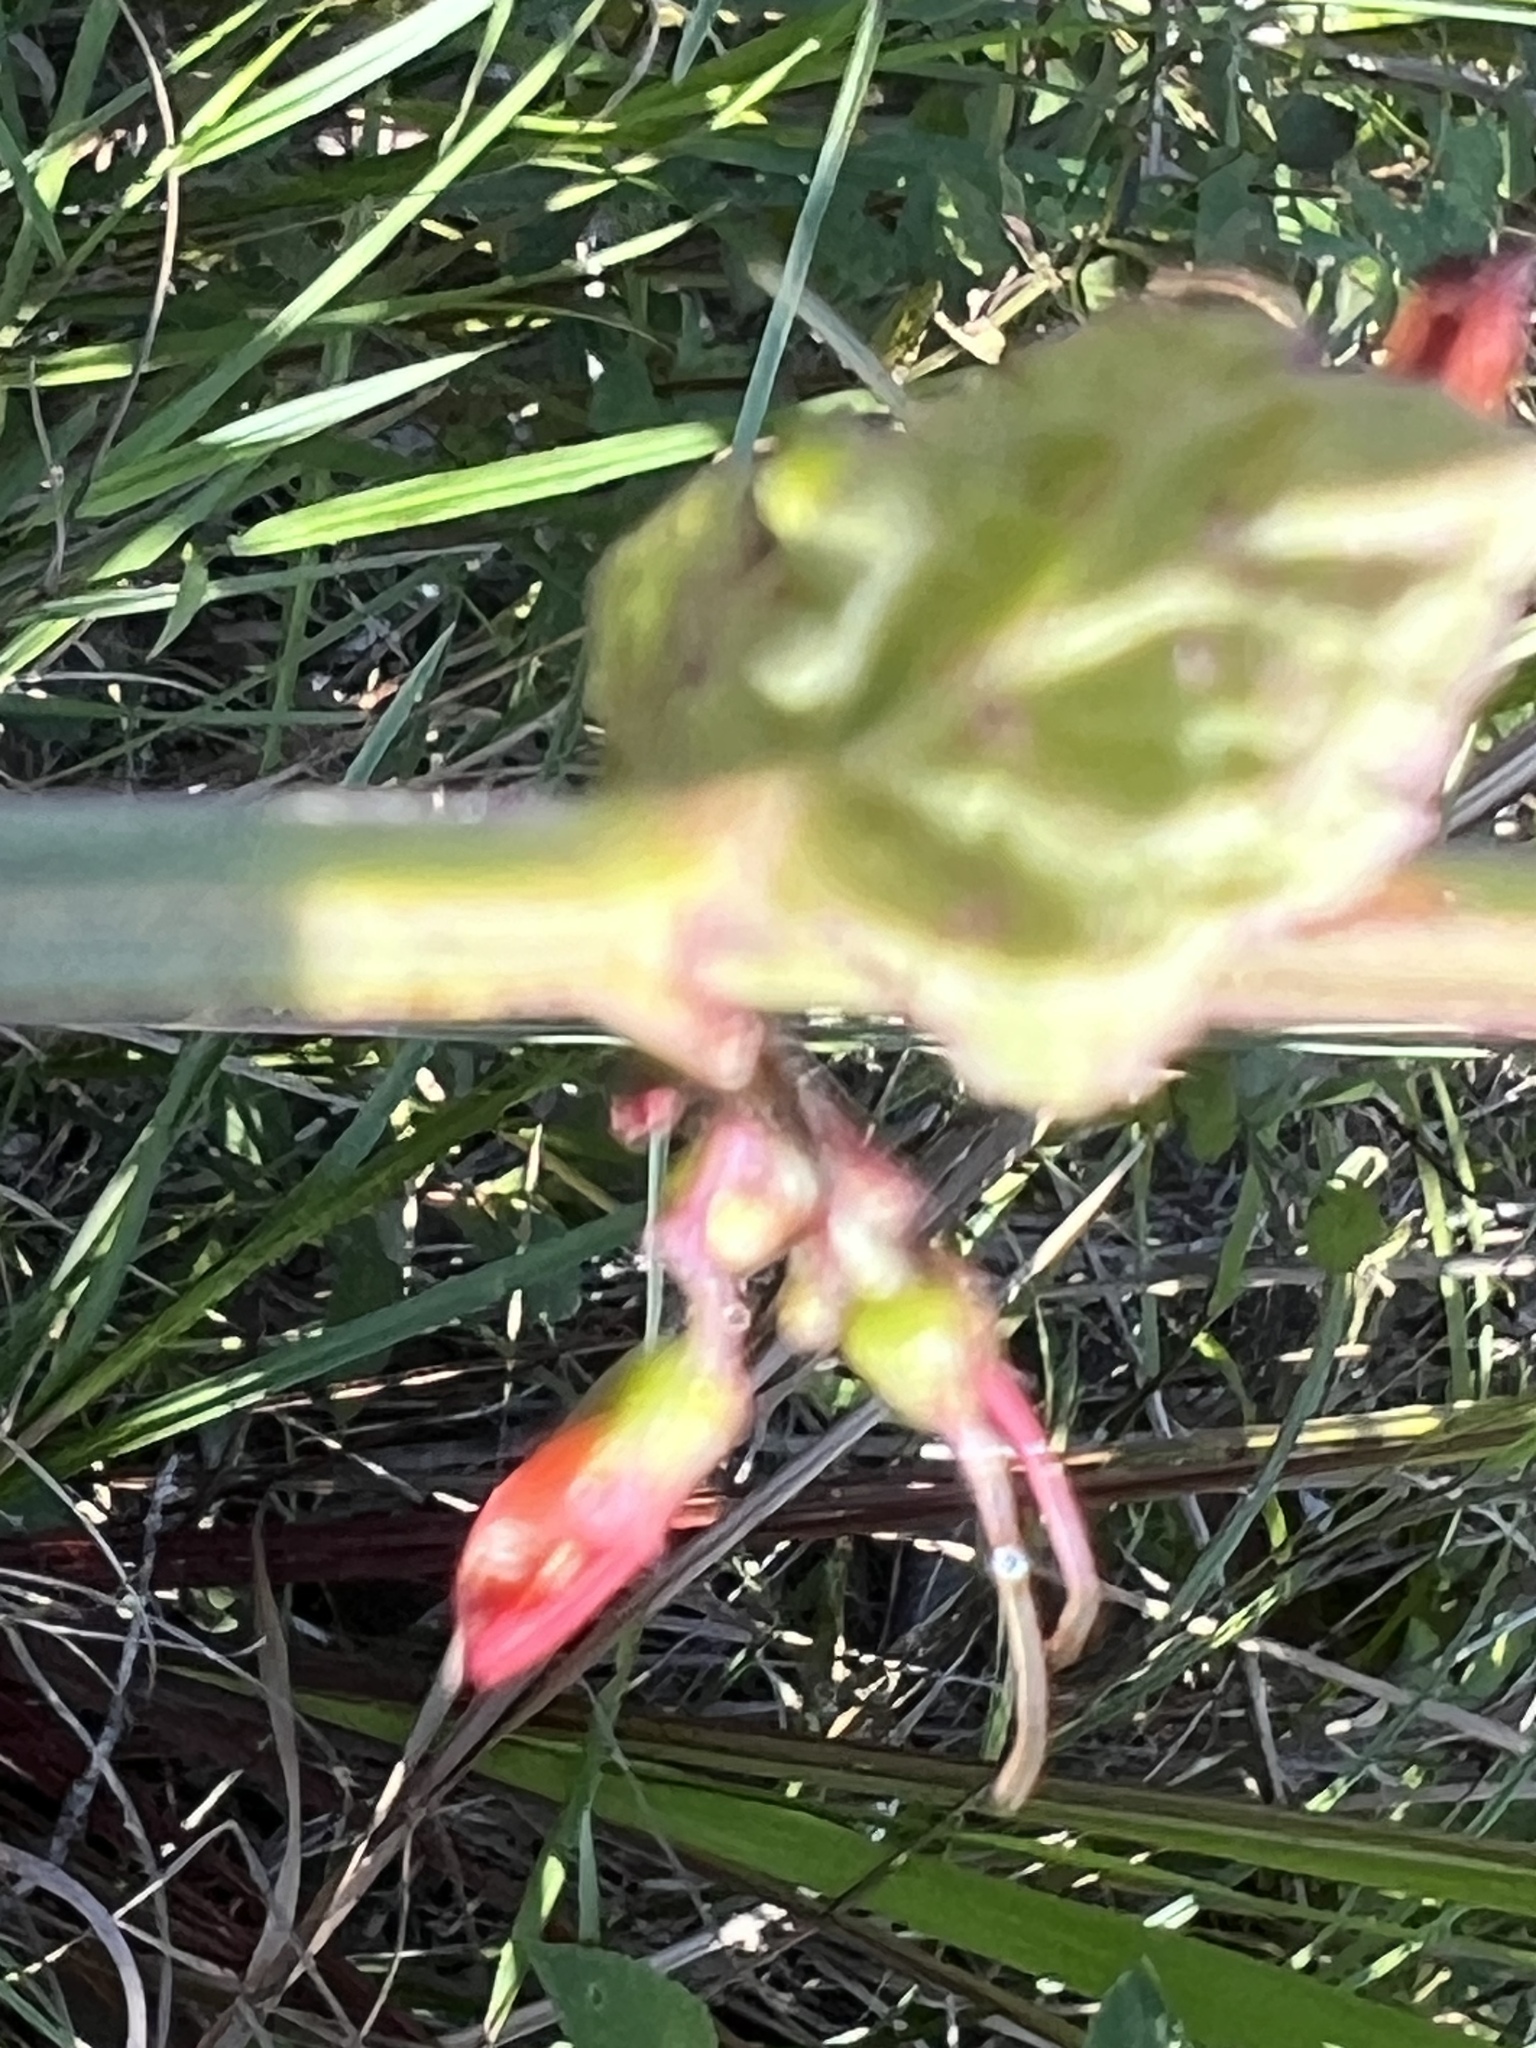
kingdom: Plantae
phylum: Tracheophyta
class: Magnoliopsida
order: Lamiales
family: Plantaginaceae
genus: Russelia
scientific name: Russelia sarmentosa
